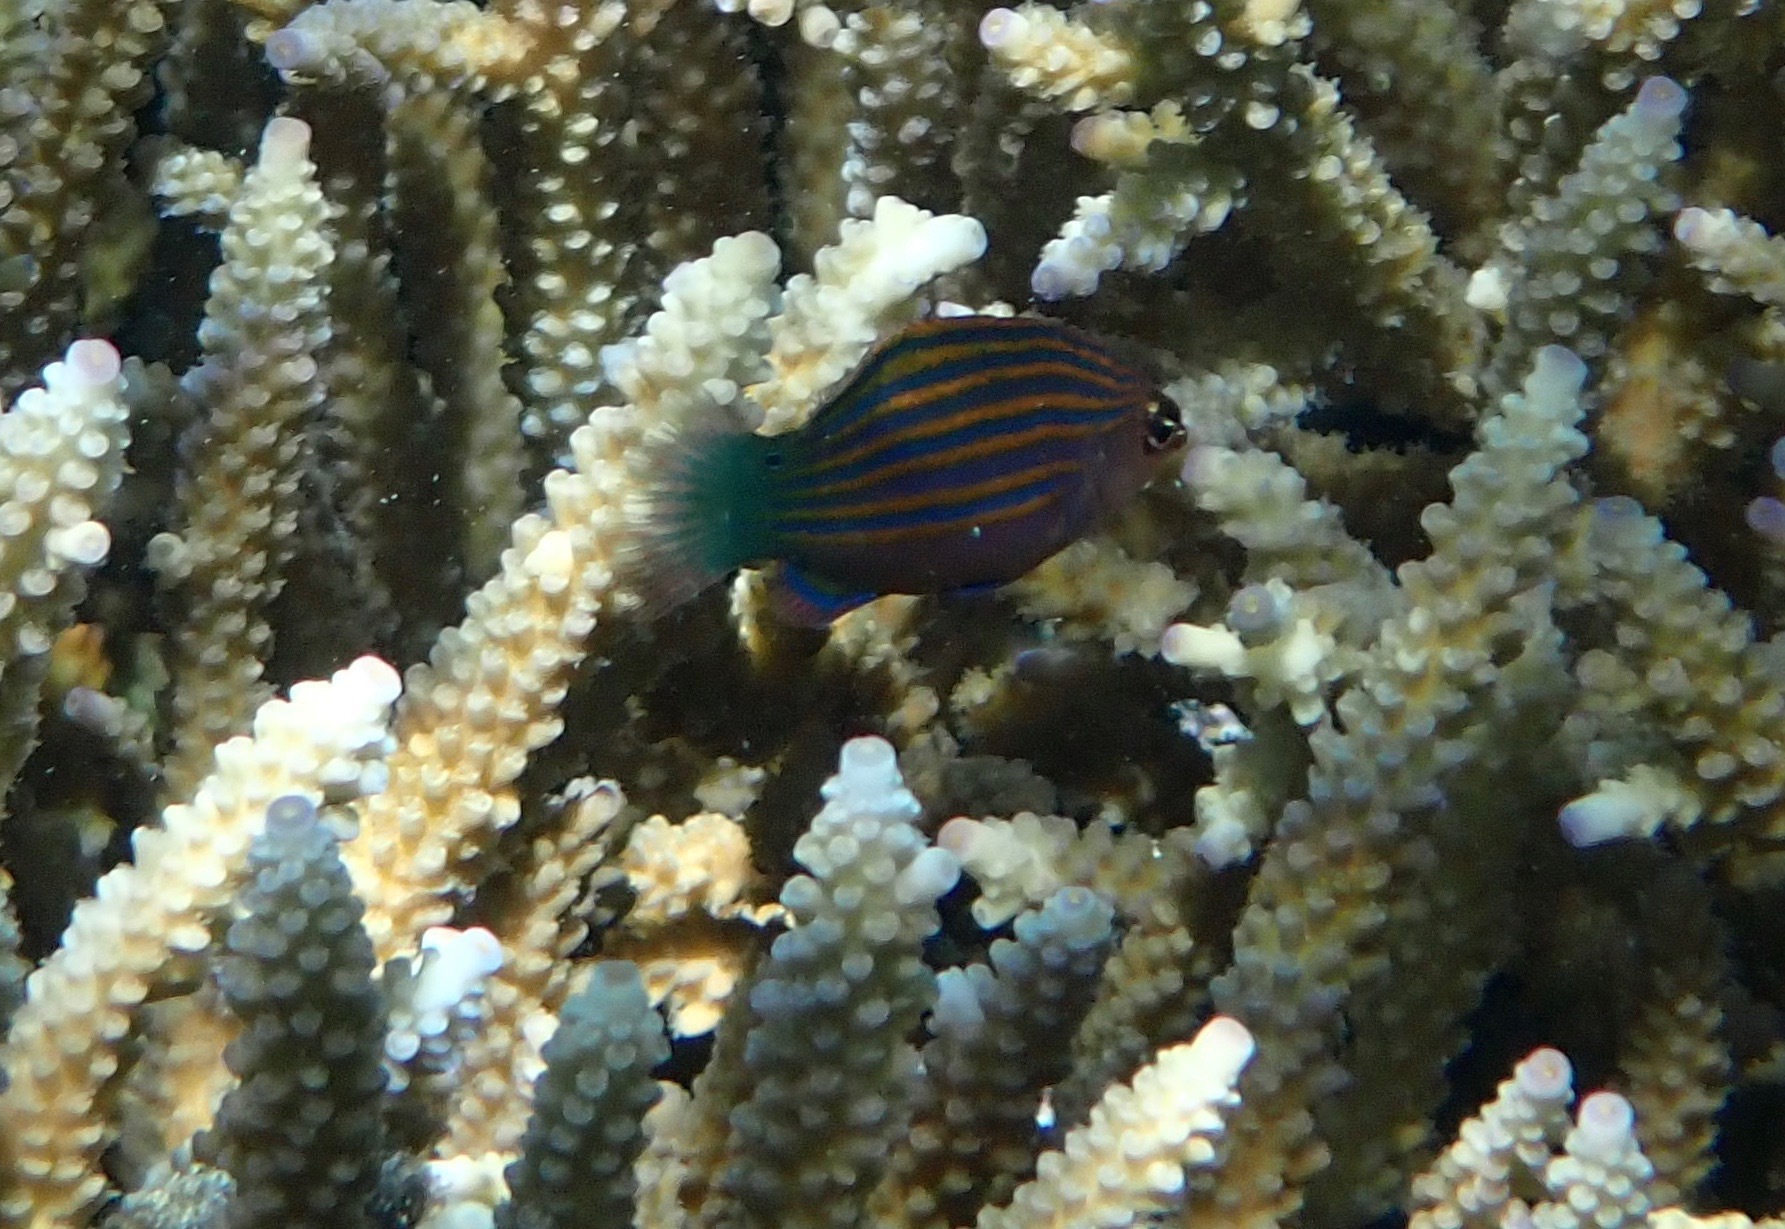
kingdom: Animalia
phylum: Chordata
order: Perciformes
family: Labridae
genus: Pseudocheilinus
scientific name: Pseudocheilinus hexataenia
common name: Sixline wrasse
